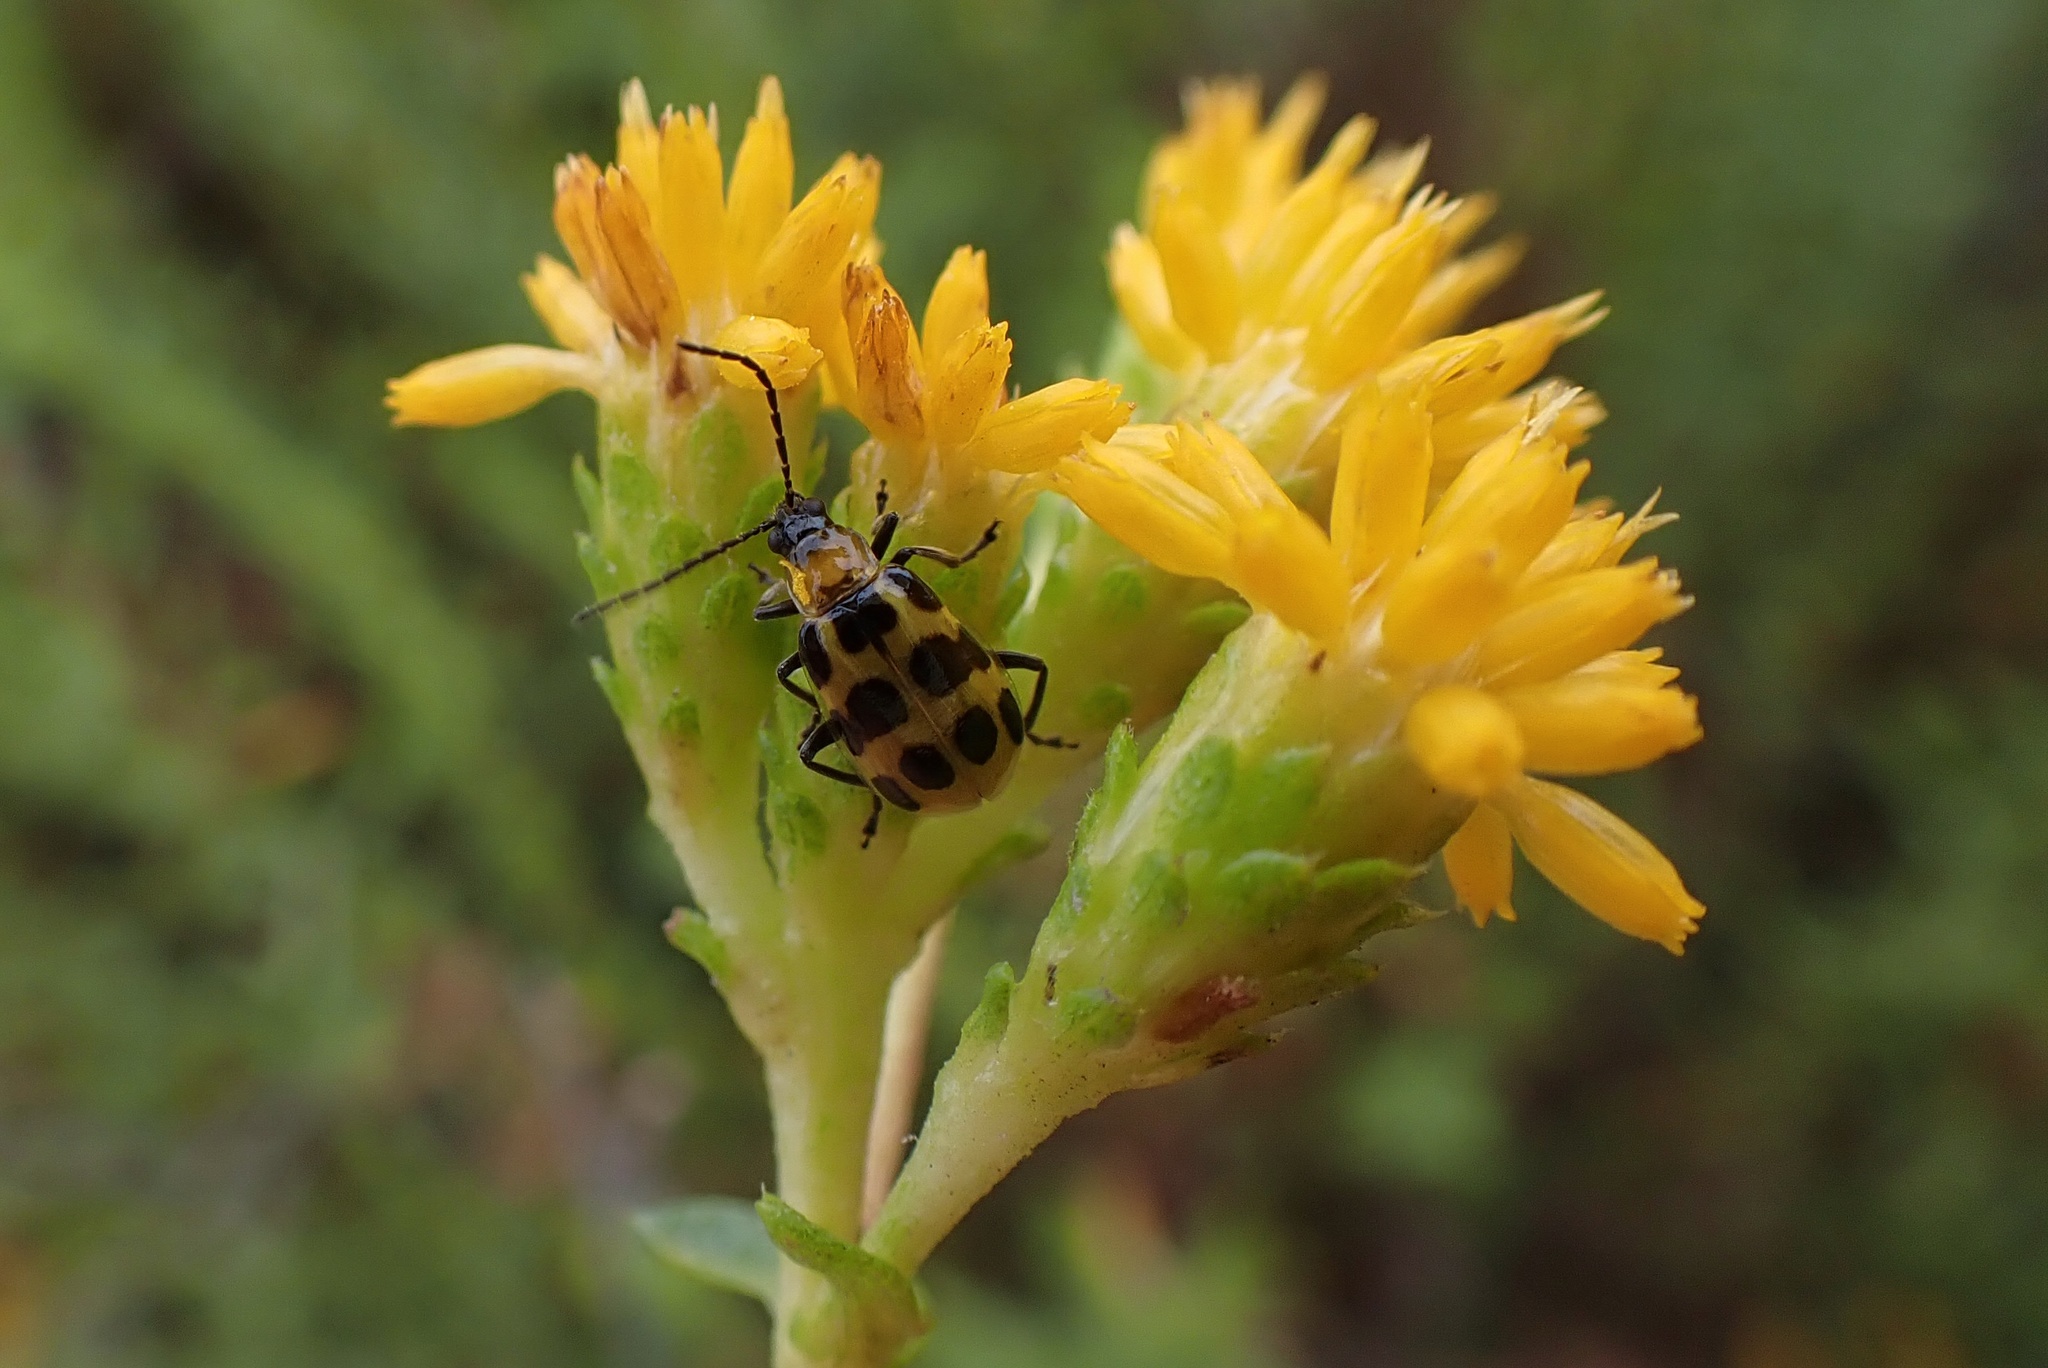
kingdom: Animalia
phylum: Arthropoda
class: Insecta
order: Coleoptera
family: Chrysomelidae
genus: Diabrotica
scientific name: Diabrotica undecimpunctata
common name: Spotted cucumber beetle
